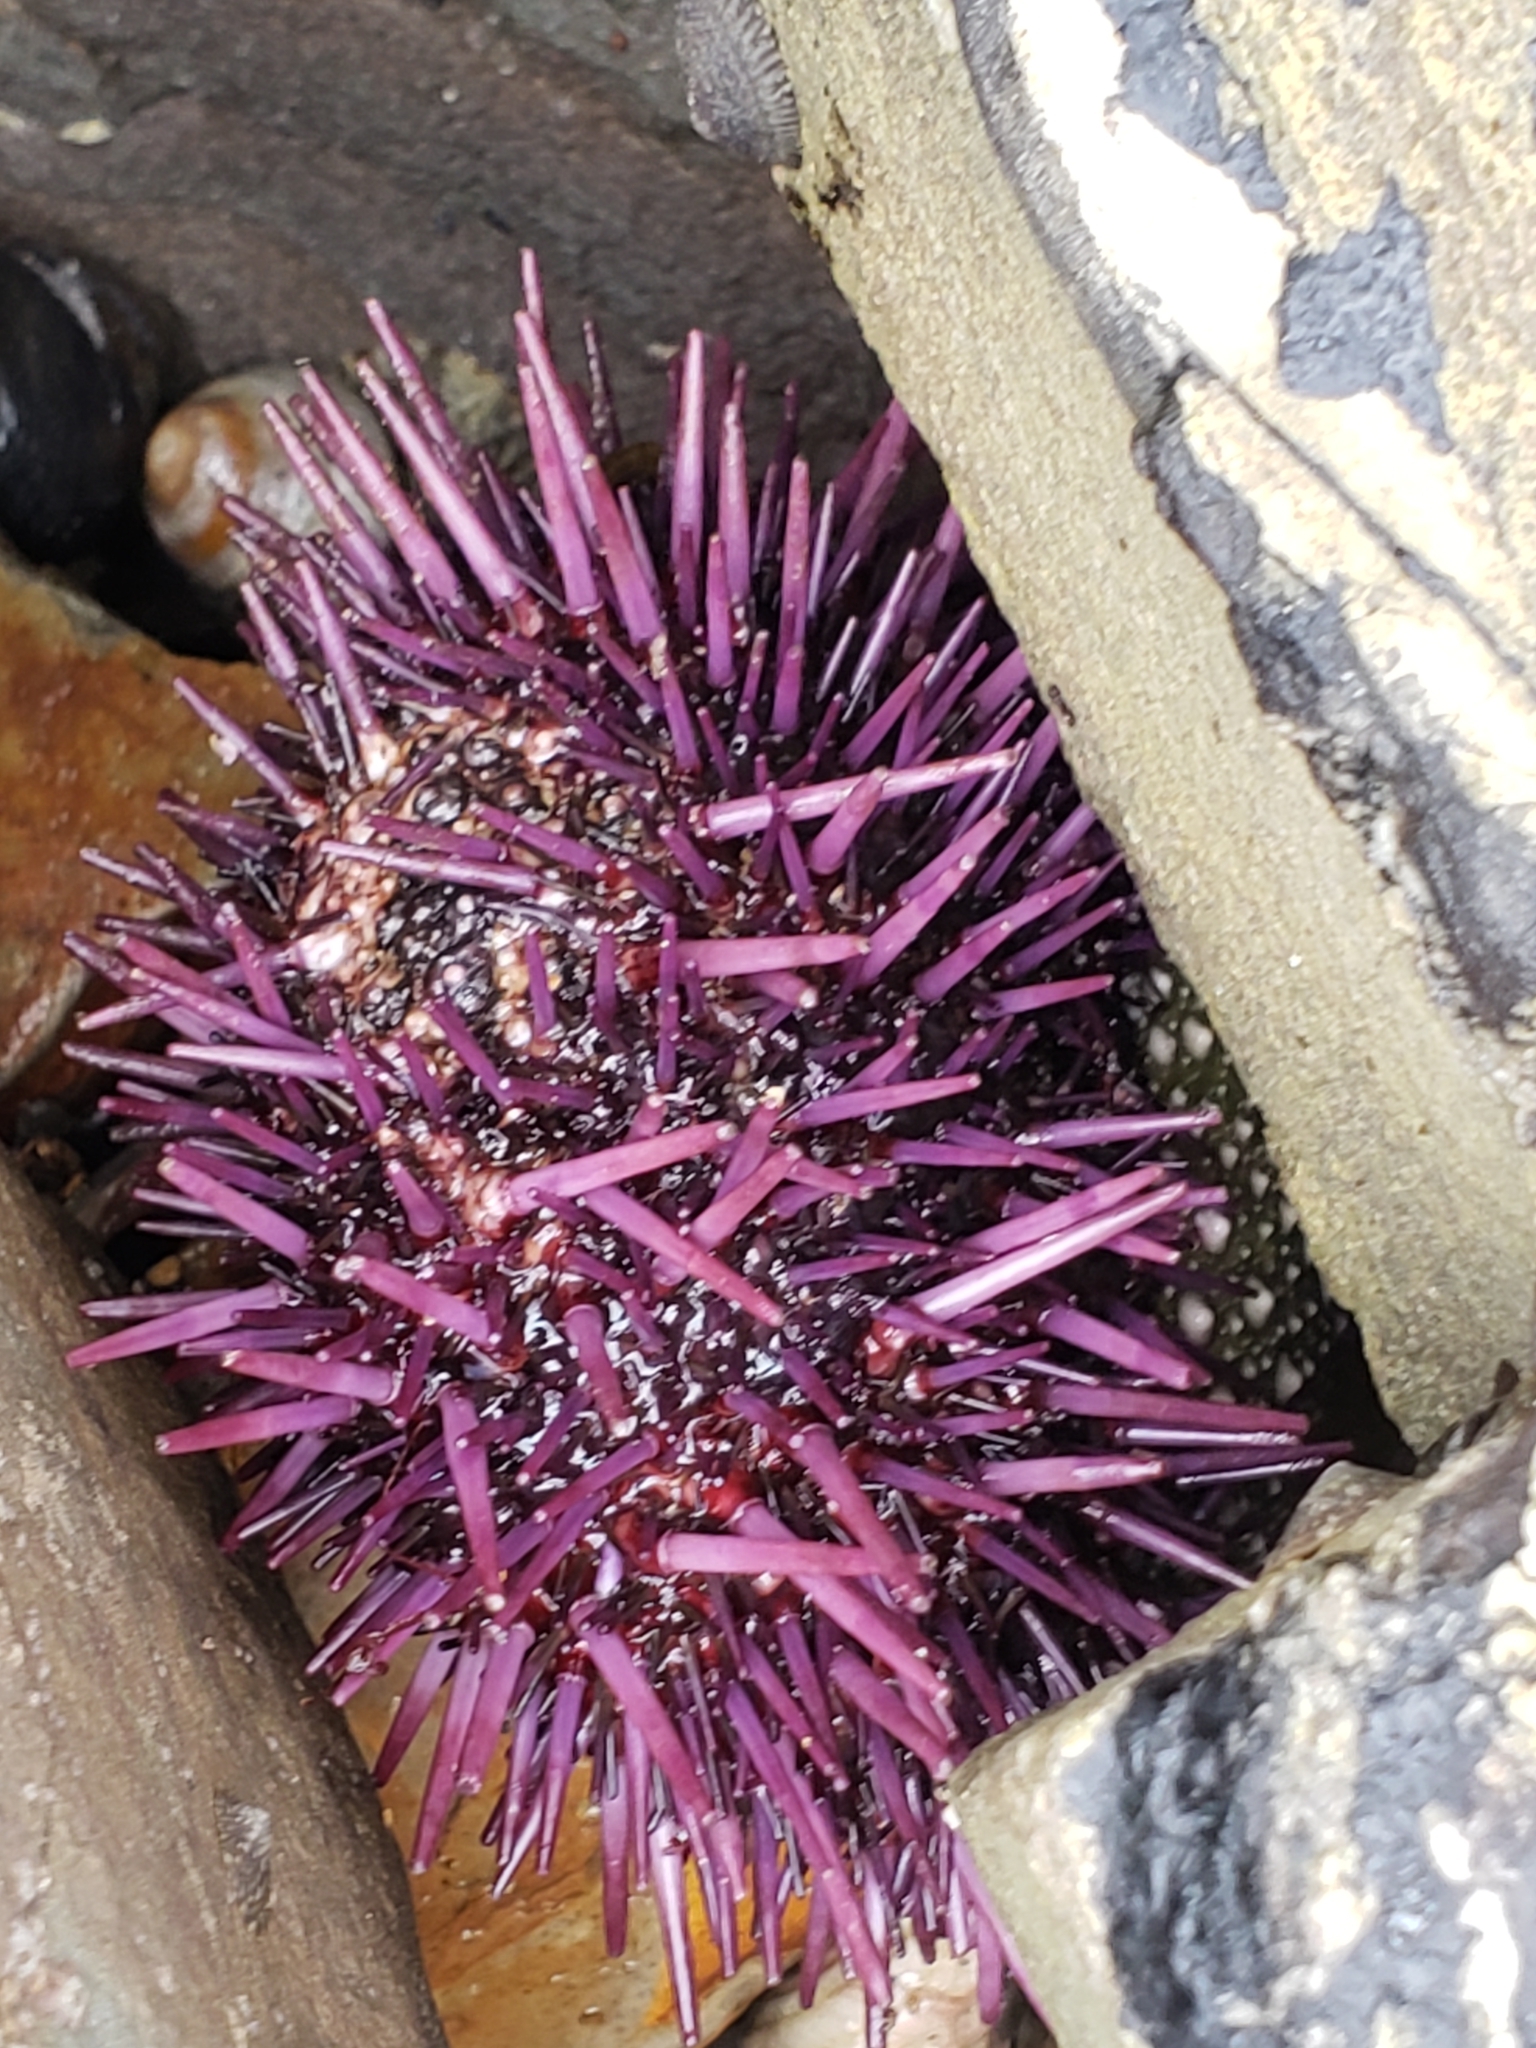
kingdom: Animalia
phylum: Echinodermata
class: Echinoidea
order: Camarodonta
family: Strongylocentrotidae
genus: Strongylocentrotus
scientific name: Strongylocentrotus purpuratus
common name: Purple sea urchin
